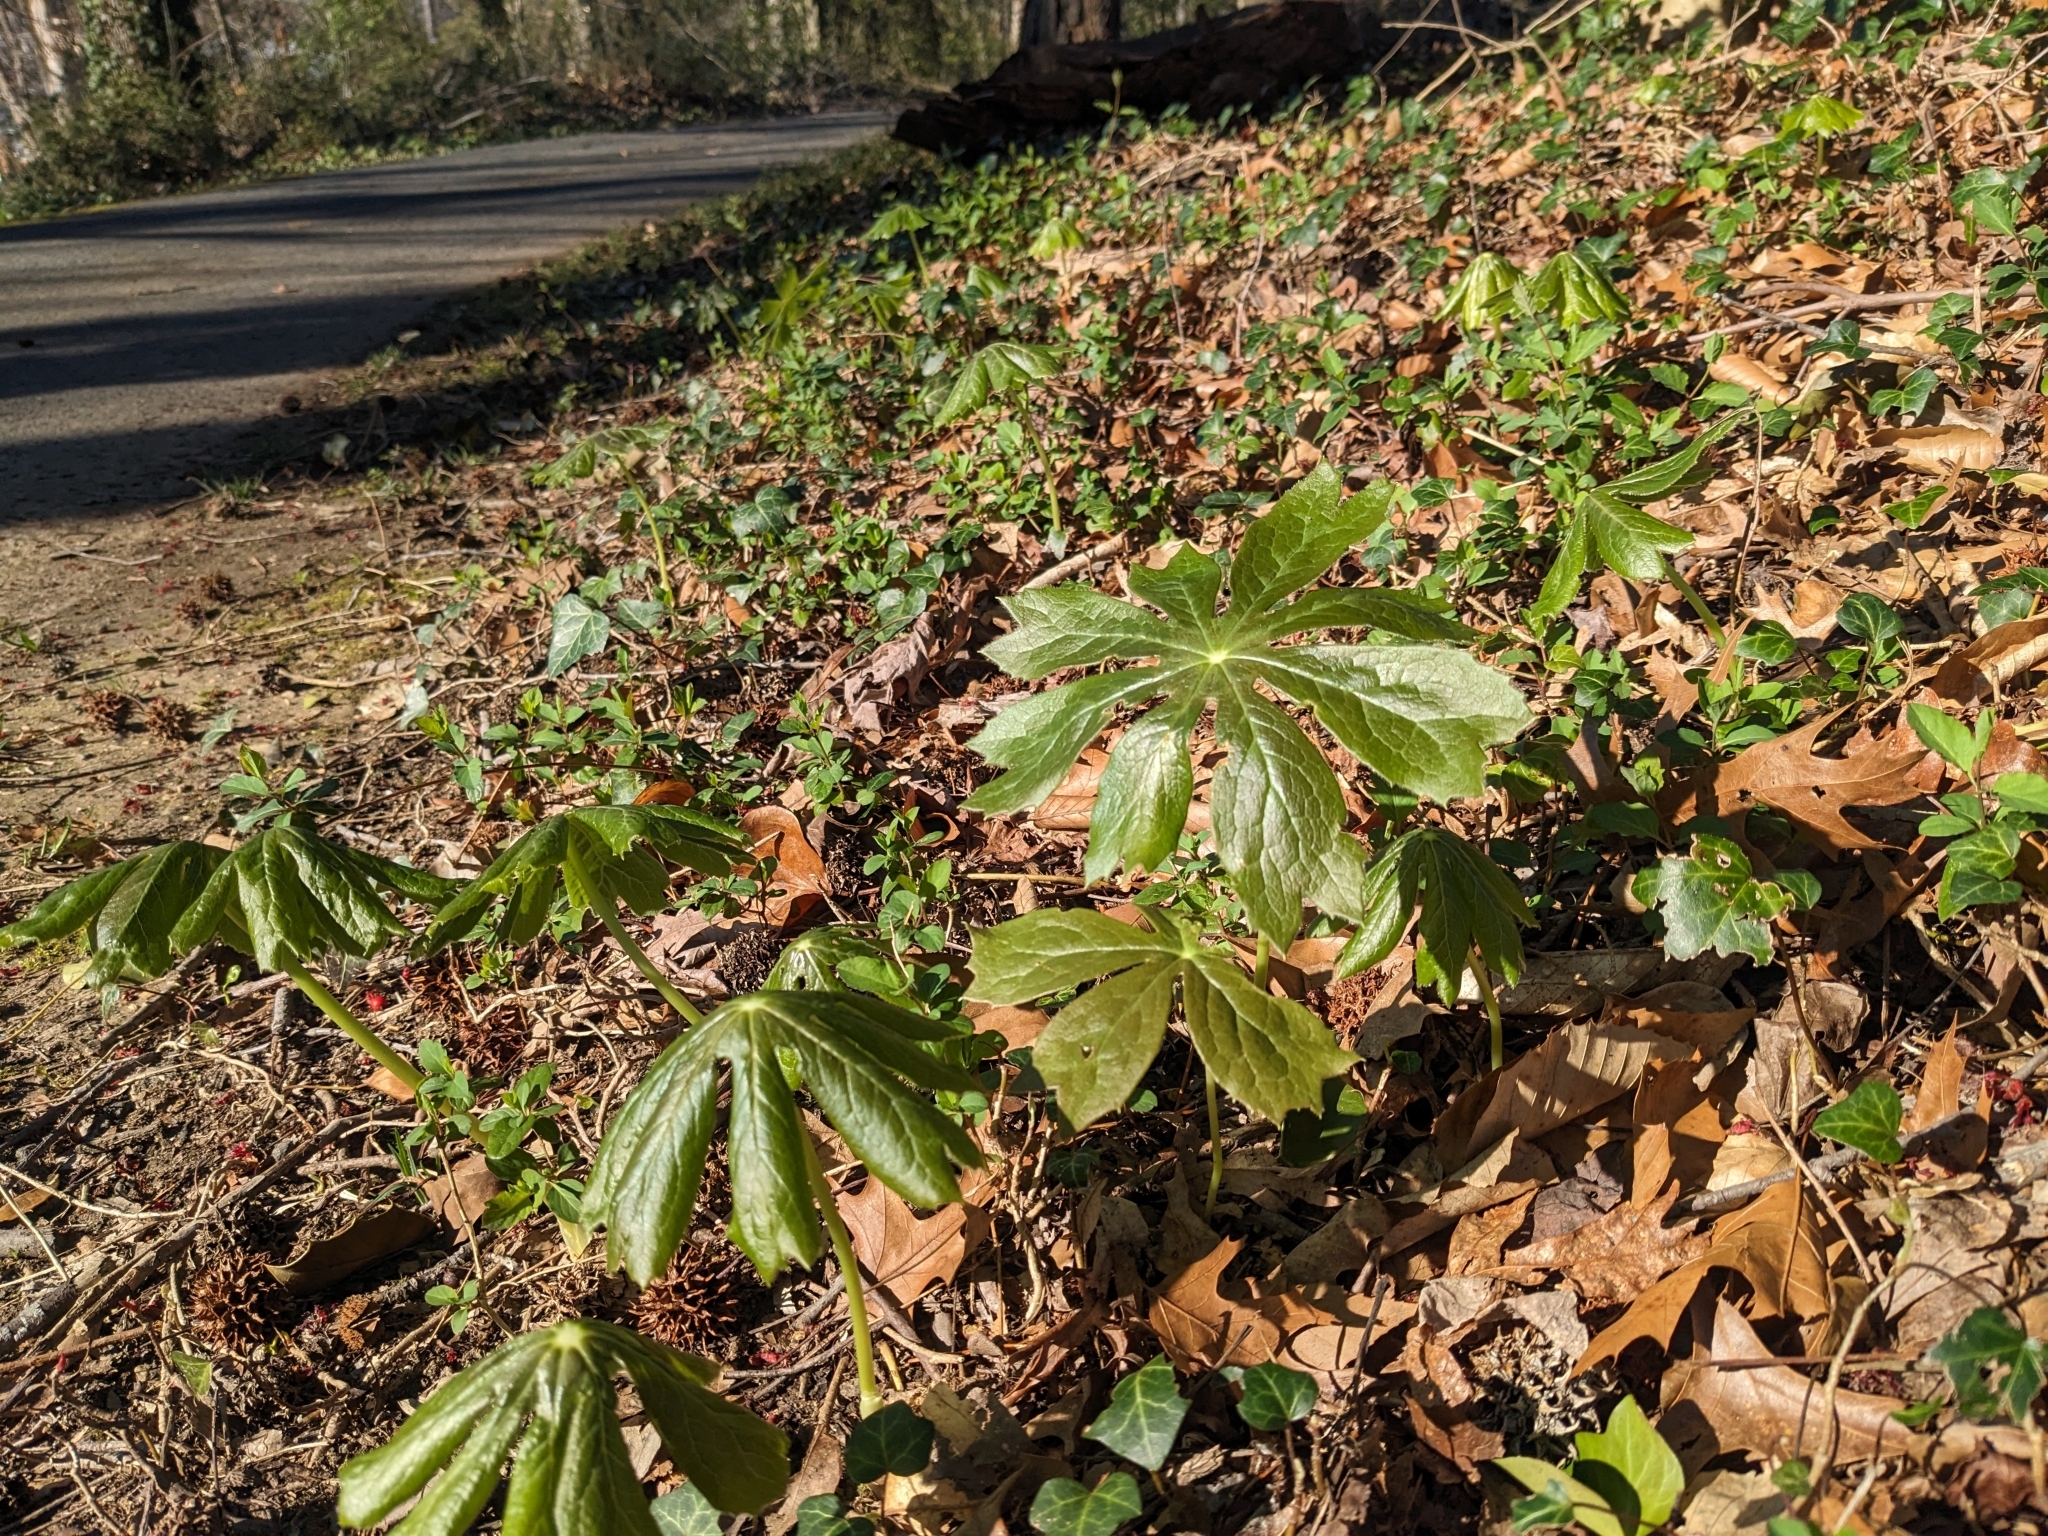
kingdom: Plantae
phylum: Tracheophyta
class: Magnoliopsida
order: Ranunculales
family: Berberidaceae
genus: Podophyllum
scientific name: Podophyllum peltatum
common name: Wild mandrake
